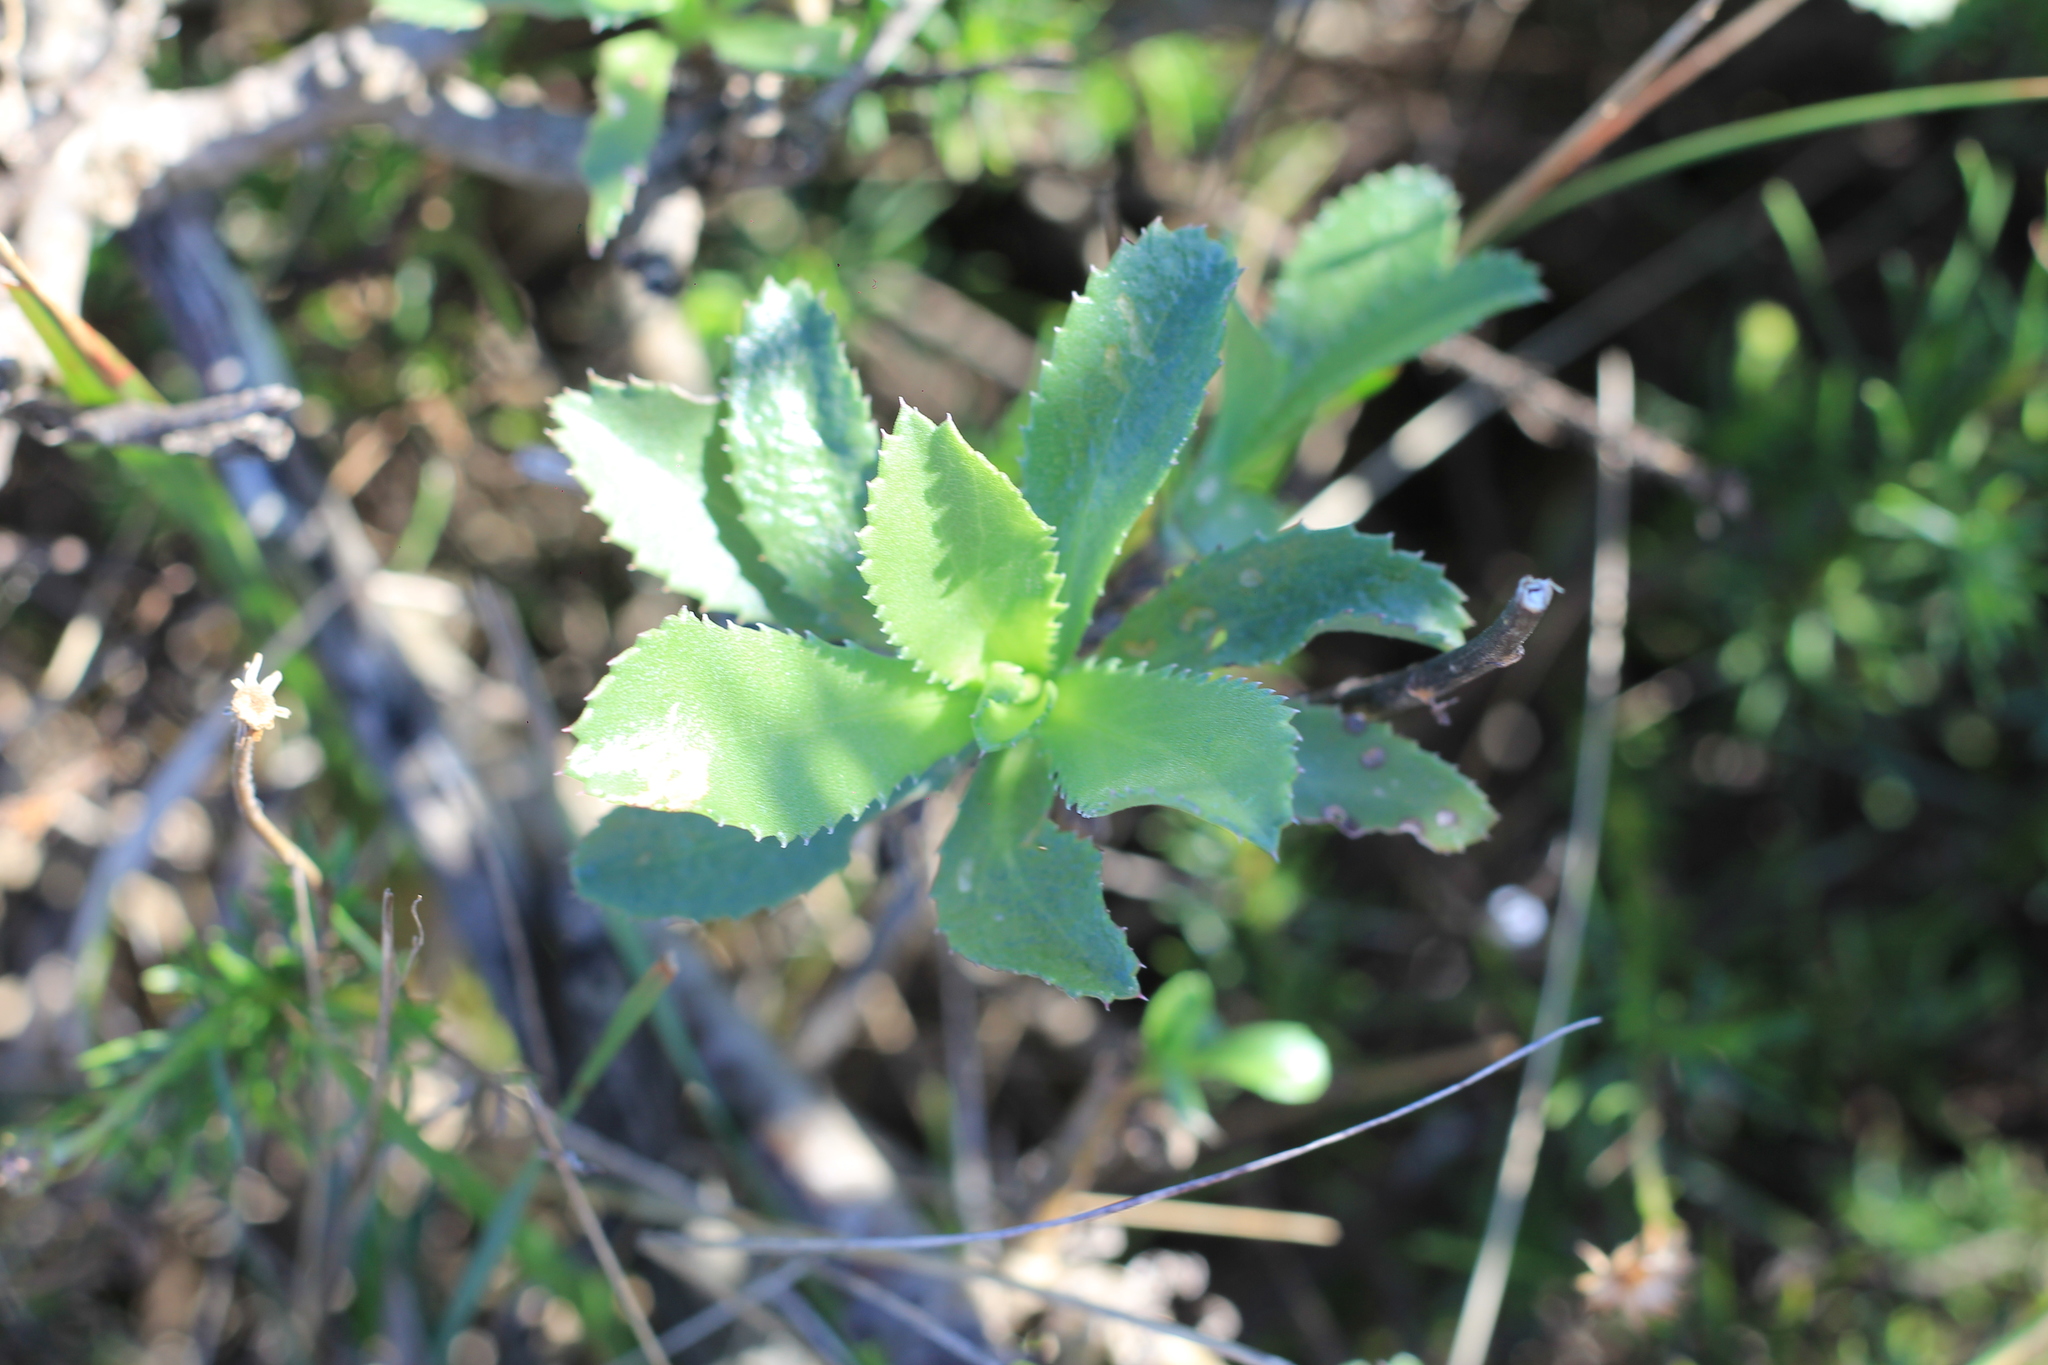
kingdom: Plantae
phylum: Tracheophyta
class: Magnoliopsida
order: Asterales
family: Asteraceae
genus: Grindelia
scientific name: Grindelia buphthalmoides
